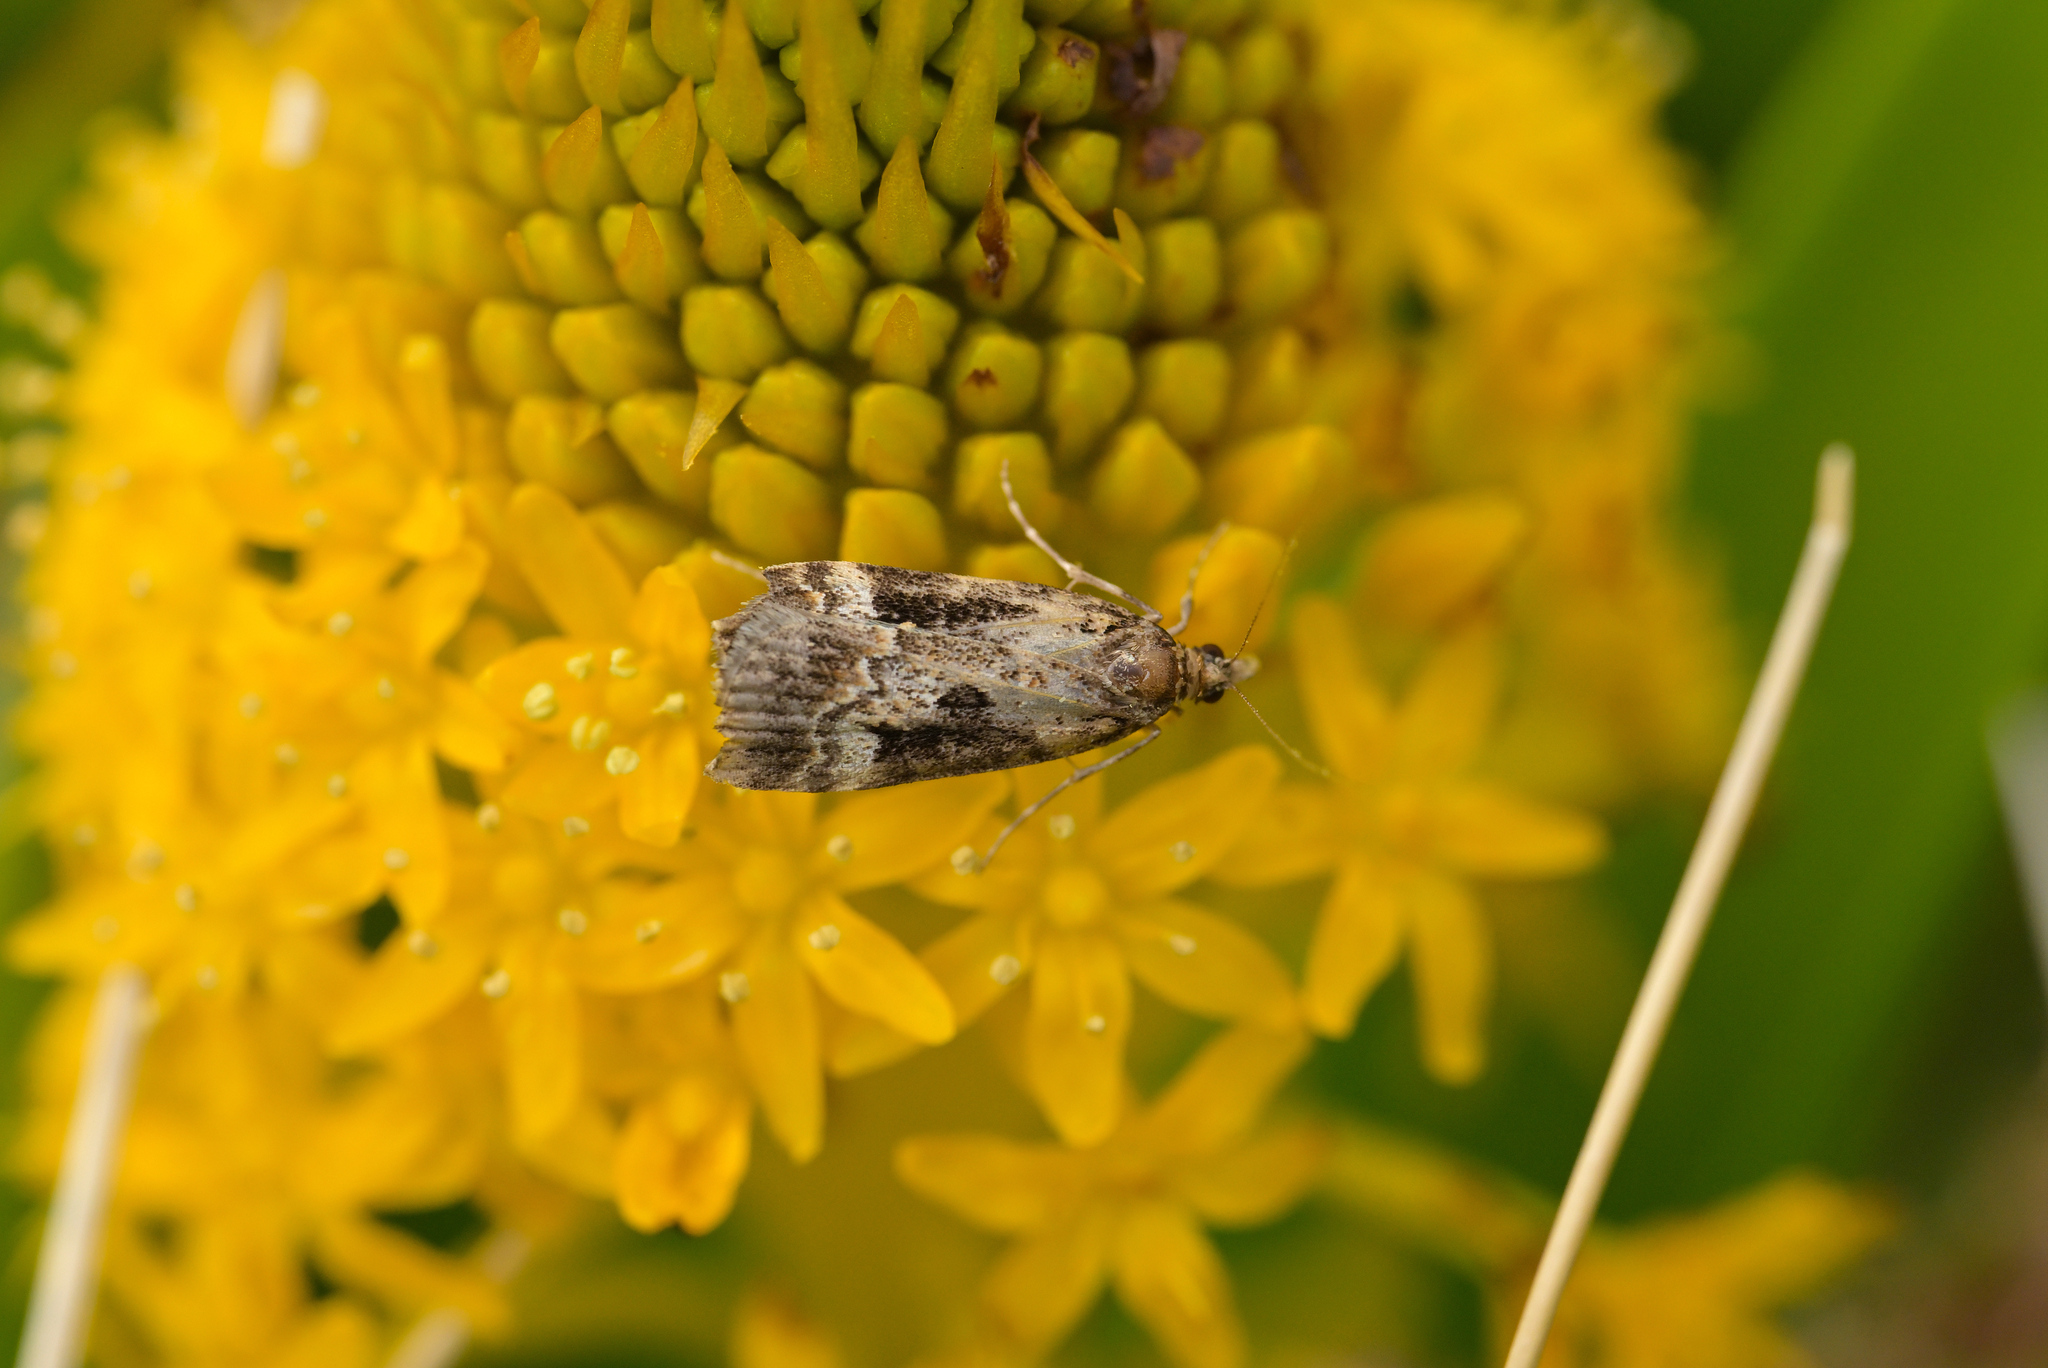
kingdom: Animalia
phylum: Arthropoda
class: Insecta
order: Lepidoptera
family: Crambidae
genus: Scoparia
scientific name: Scoparia parmifera
